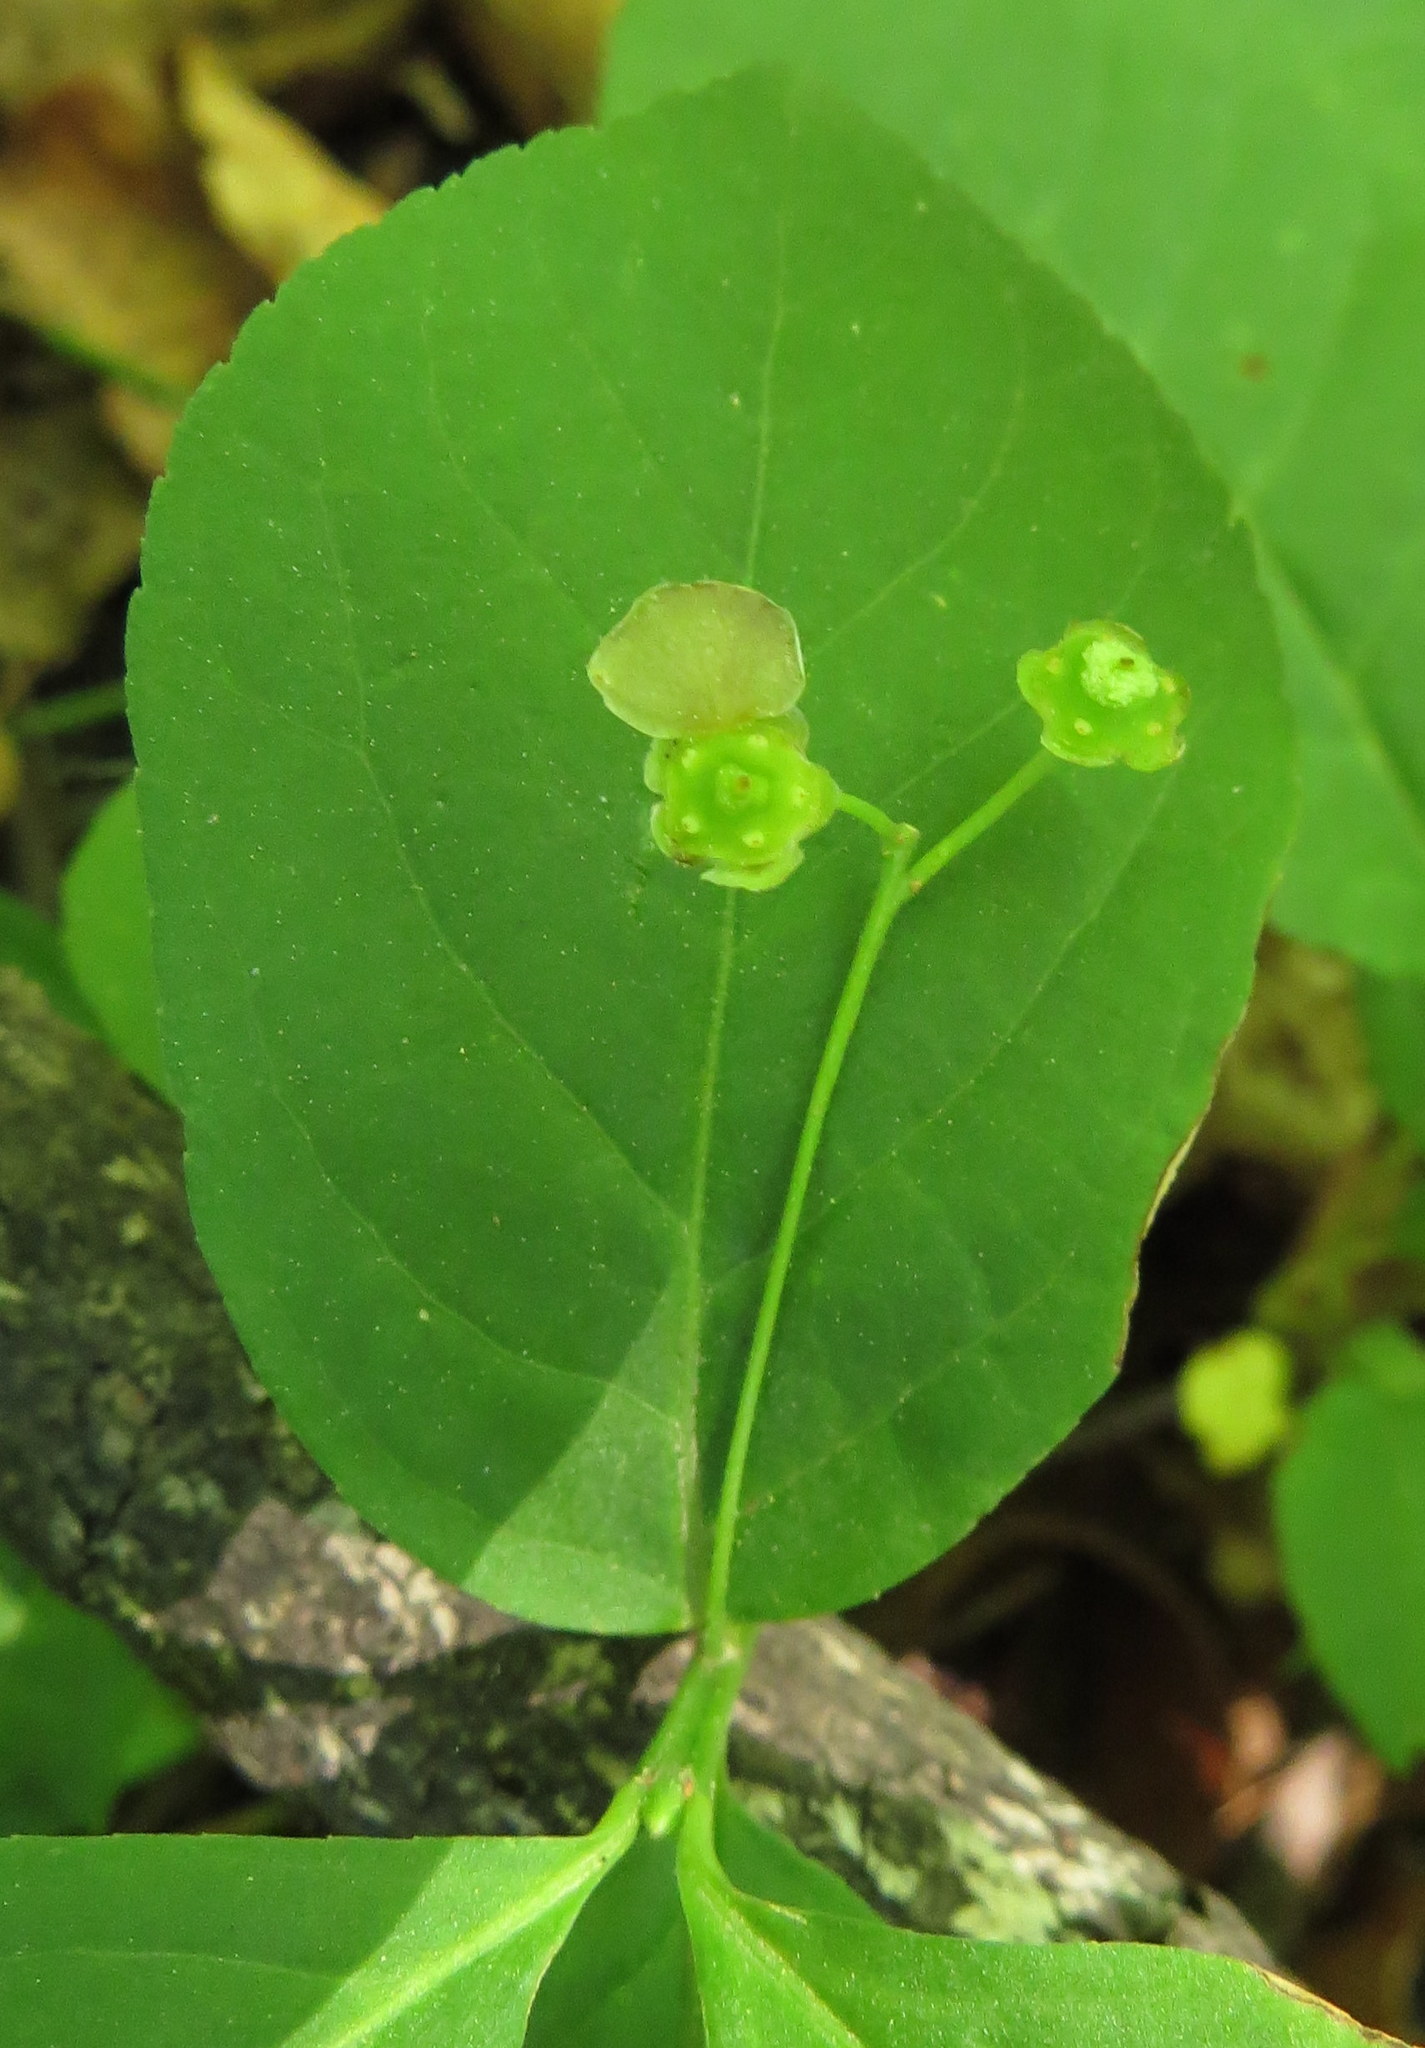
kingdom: Plantae
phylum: Tracheophyta
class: Magnoliopsida
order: Celastrales
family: Celastraceae
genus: Euonymus
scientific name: Euonymus obovatus
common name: Running strawberry-bush
